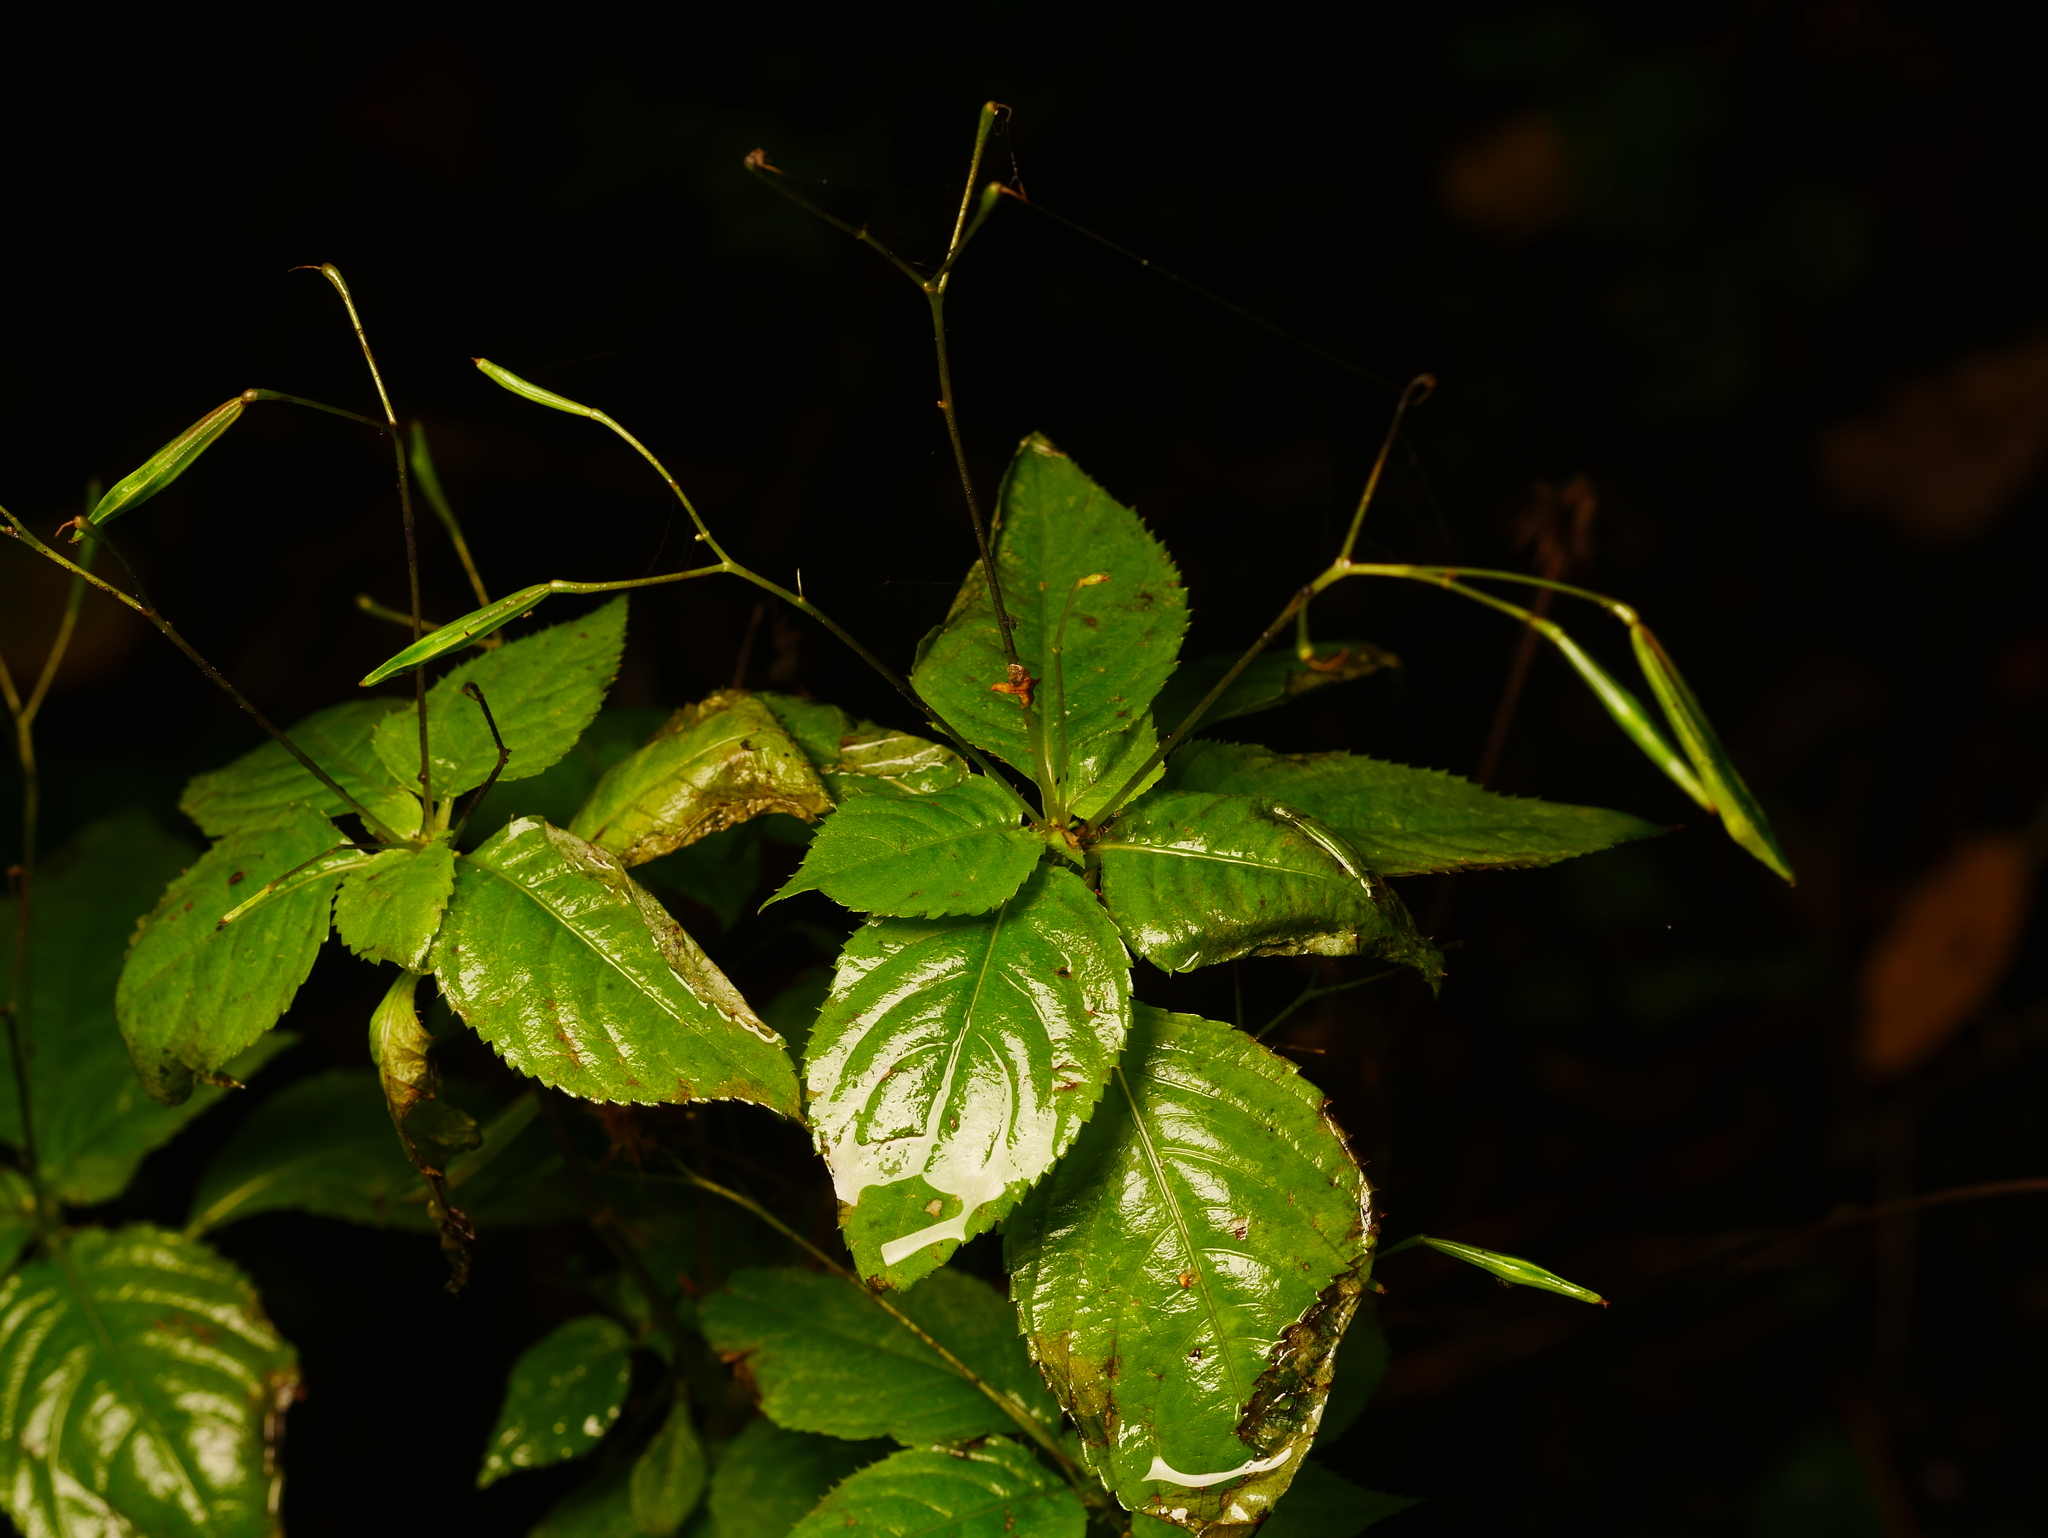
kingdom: Plantae
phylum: Tracheophyta
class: Magnoliopsida
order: Ericales
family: Balsaminaceae
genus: Impatiens
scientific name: Impatiens parviflora
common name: Small balsam
